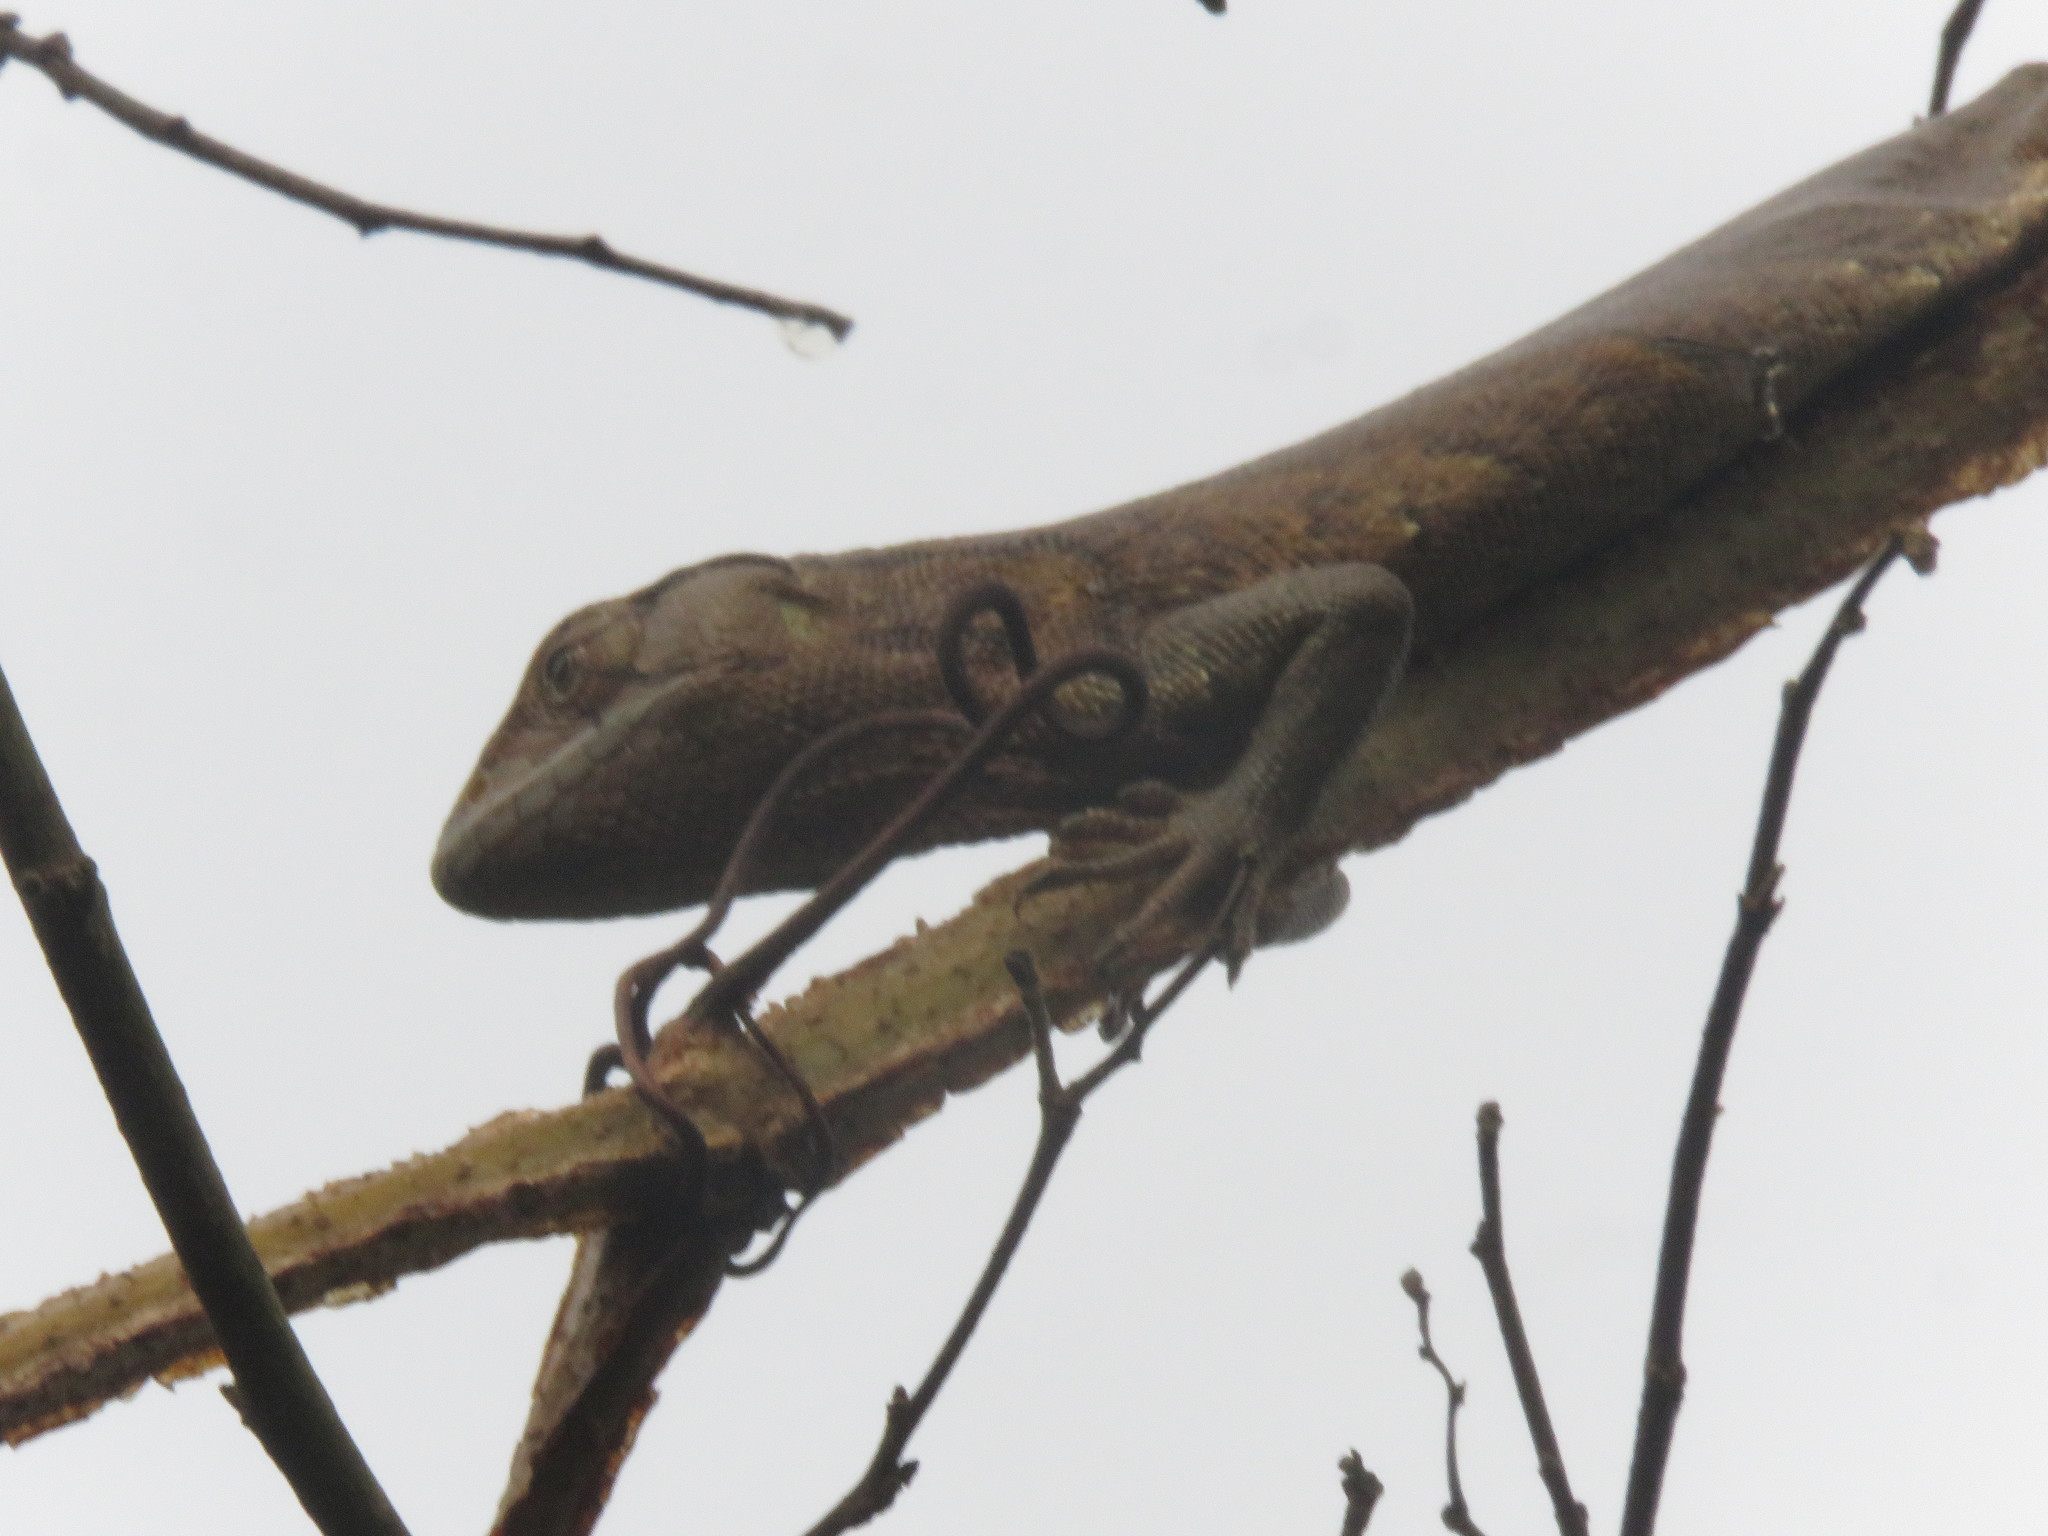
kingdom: Animalia
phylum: Chordata
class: Squamata
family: Polychrotidae
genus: Polychrus
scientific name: Polychrus liogaster
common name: Boulenger's bush anole
